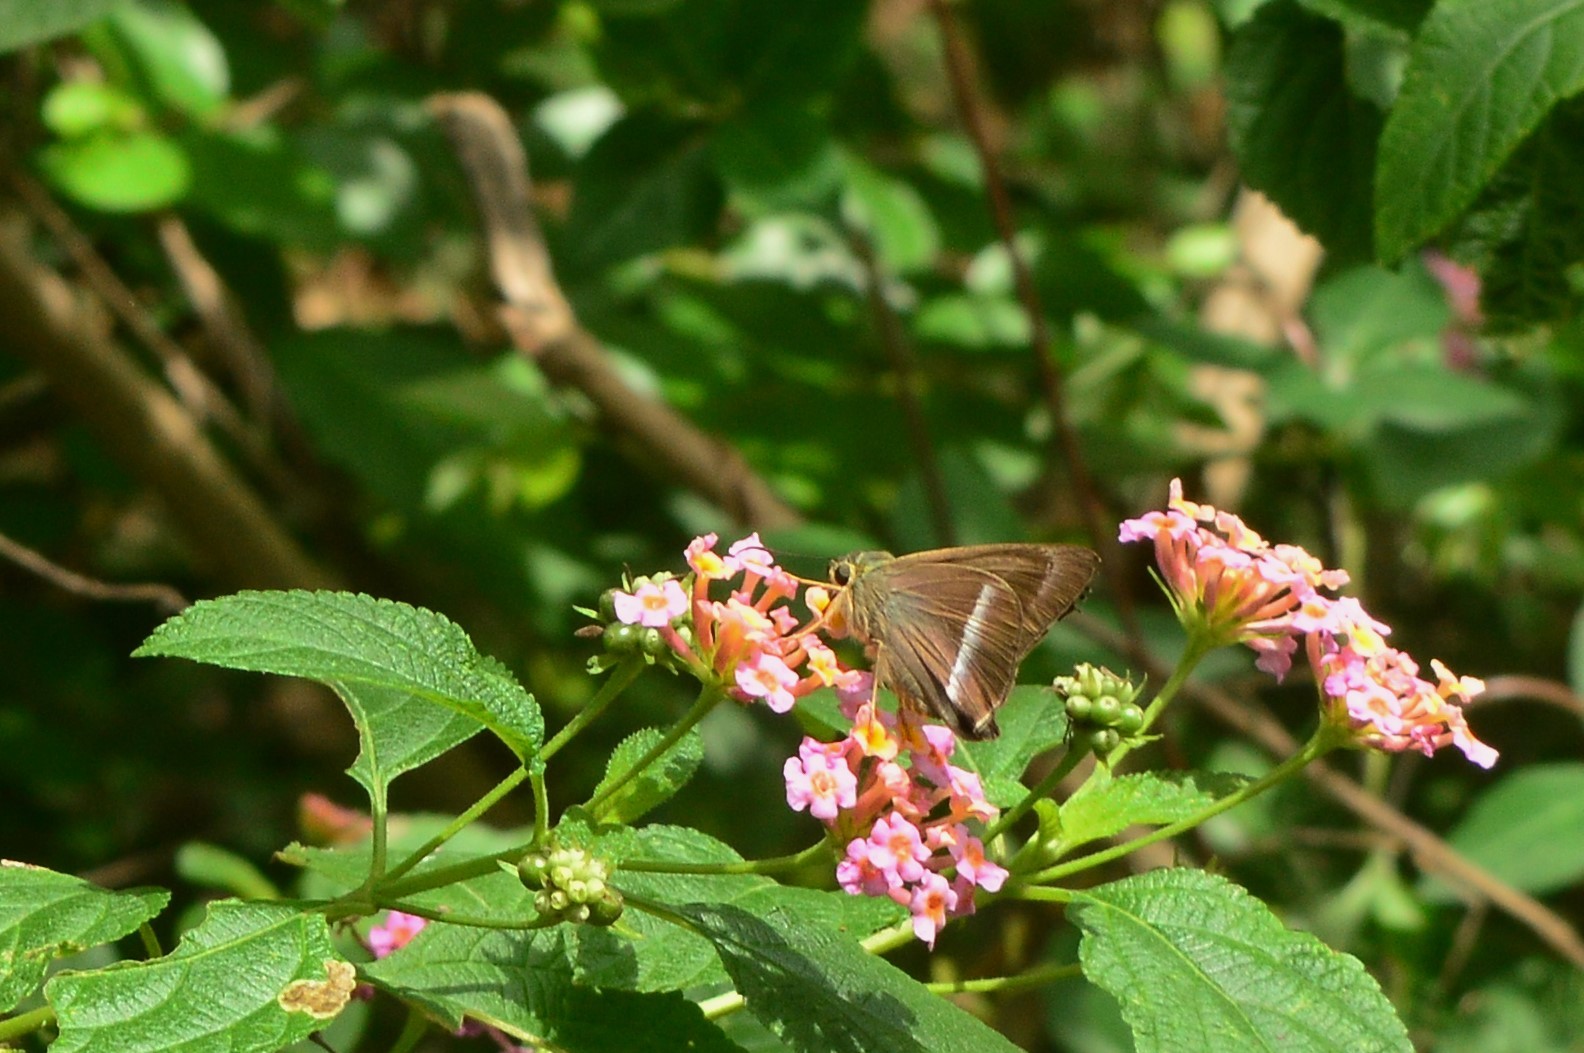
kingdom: Animalia
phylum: Arthropoda
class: Insecta
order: Lepidoptera
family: Hesperiidae
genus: Hasora
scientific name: Hasora chromus
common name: Common banded awl
